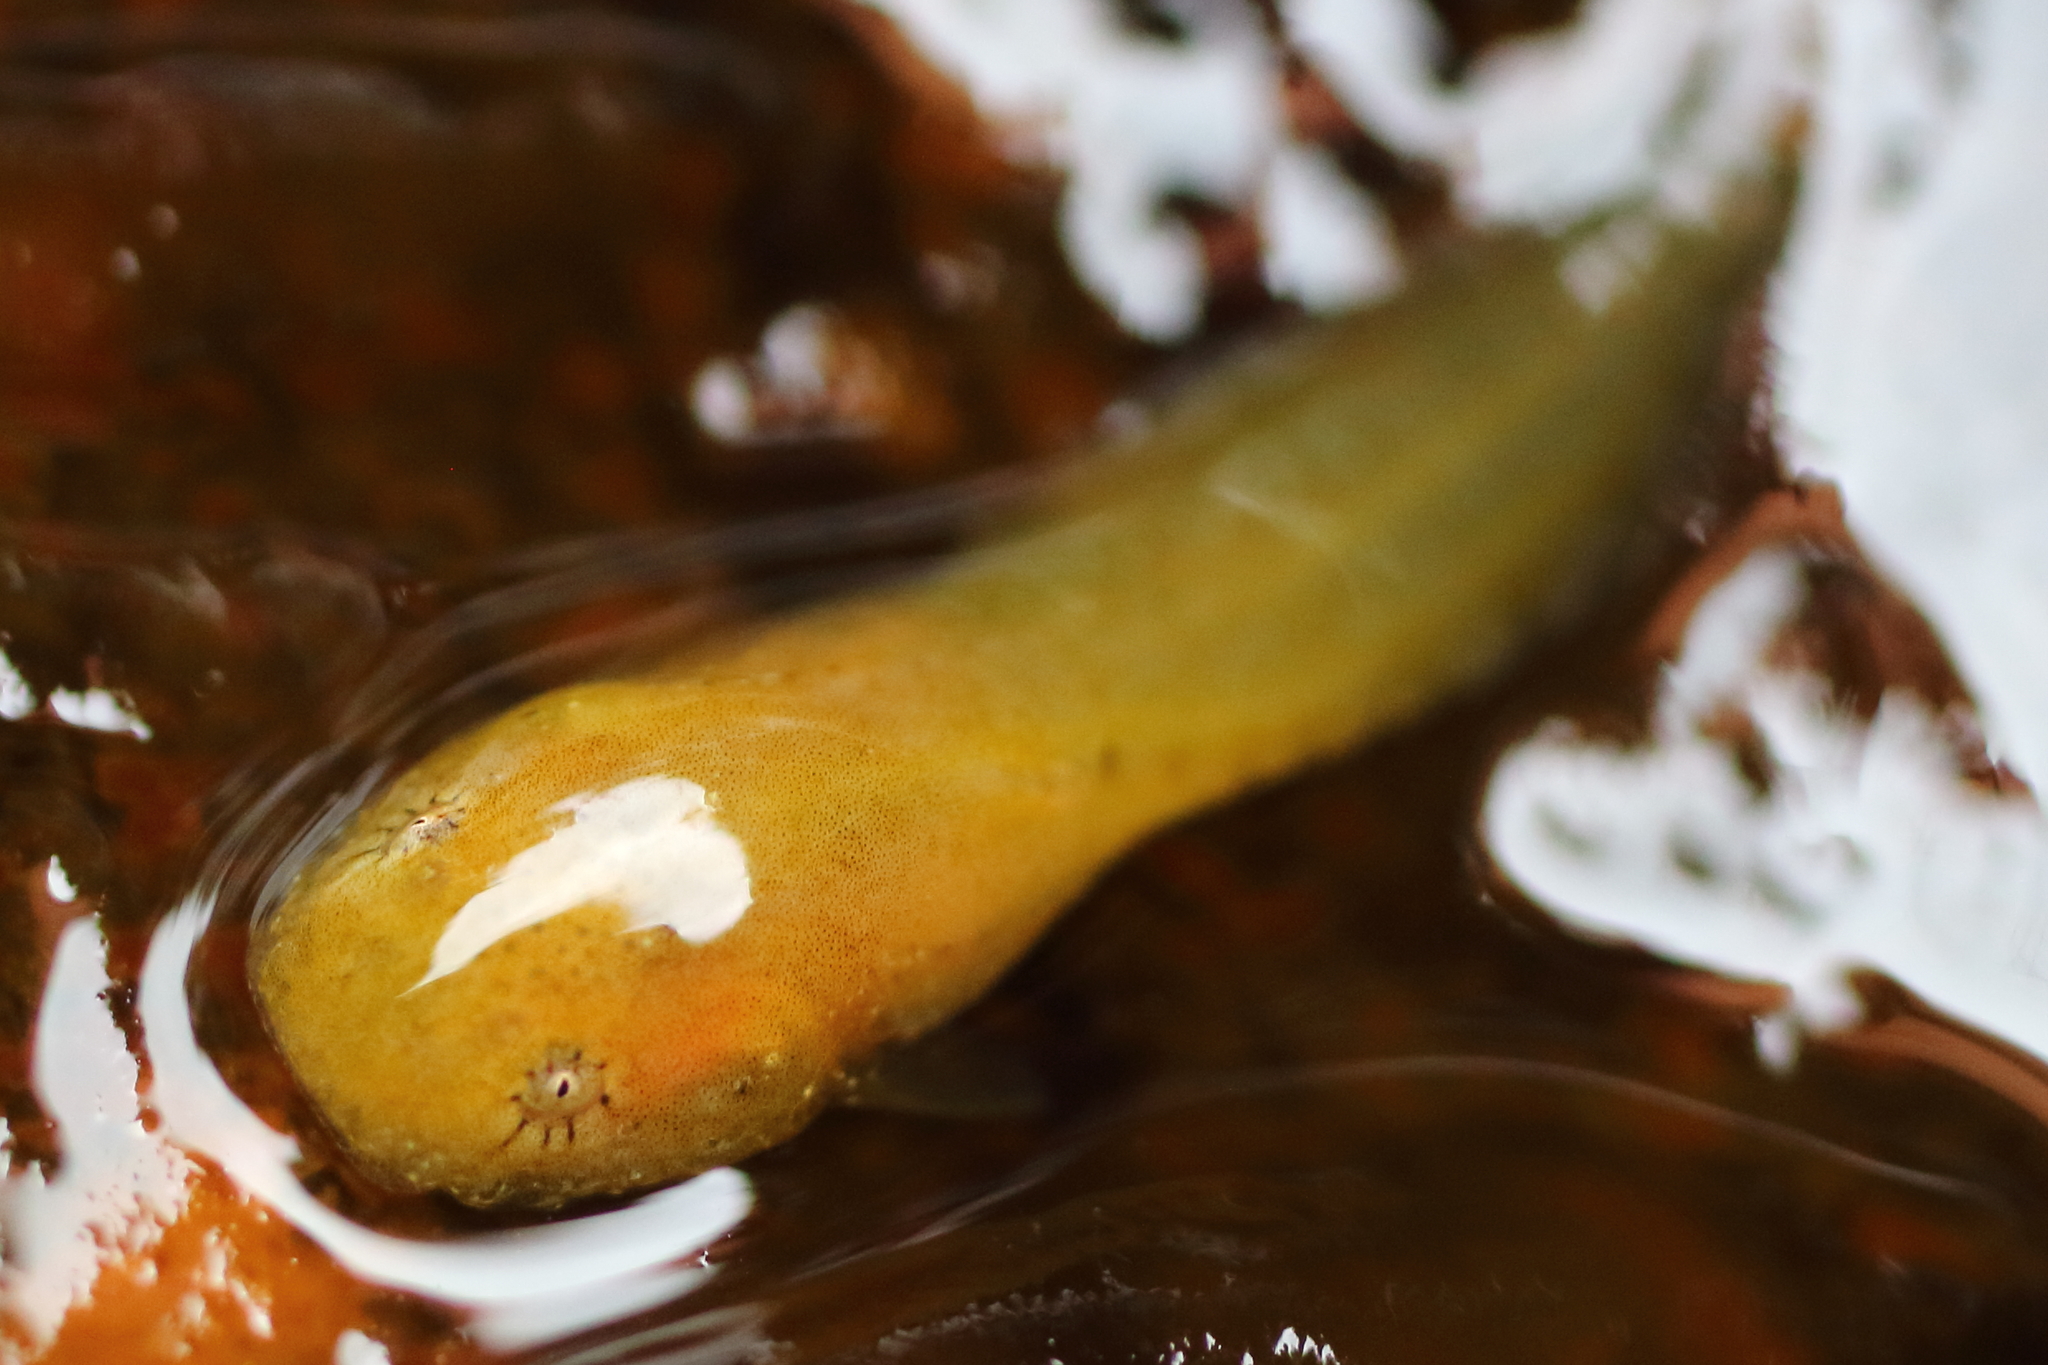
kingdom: Animalia
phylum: Chordata
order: Scorpaeniformes
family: Liparidae
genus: Liparis
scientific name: Liparis mucosus
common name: Slimy snailfish
